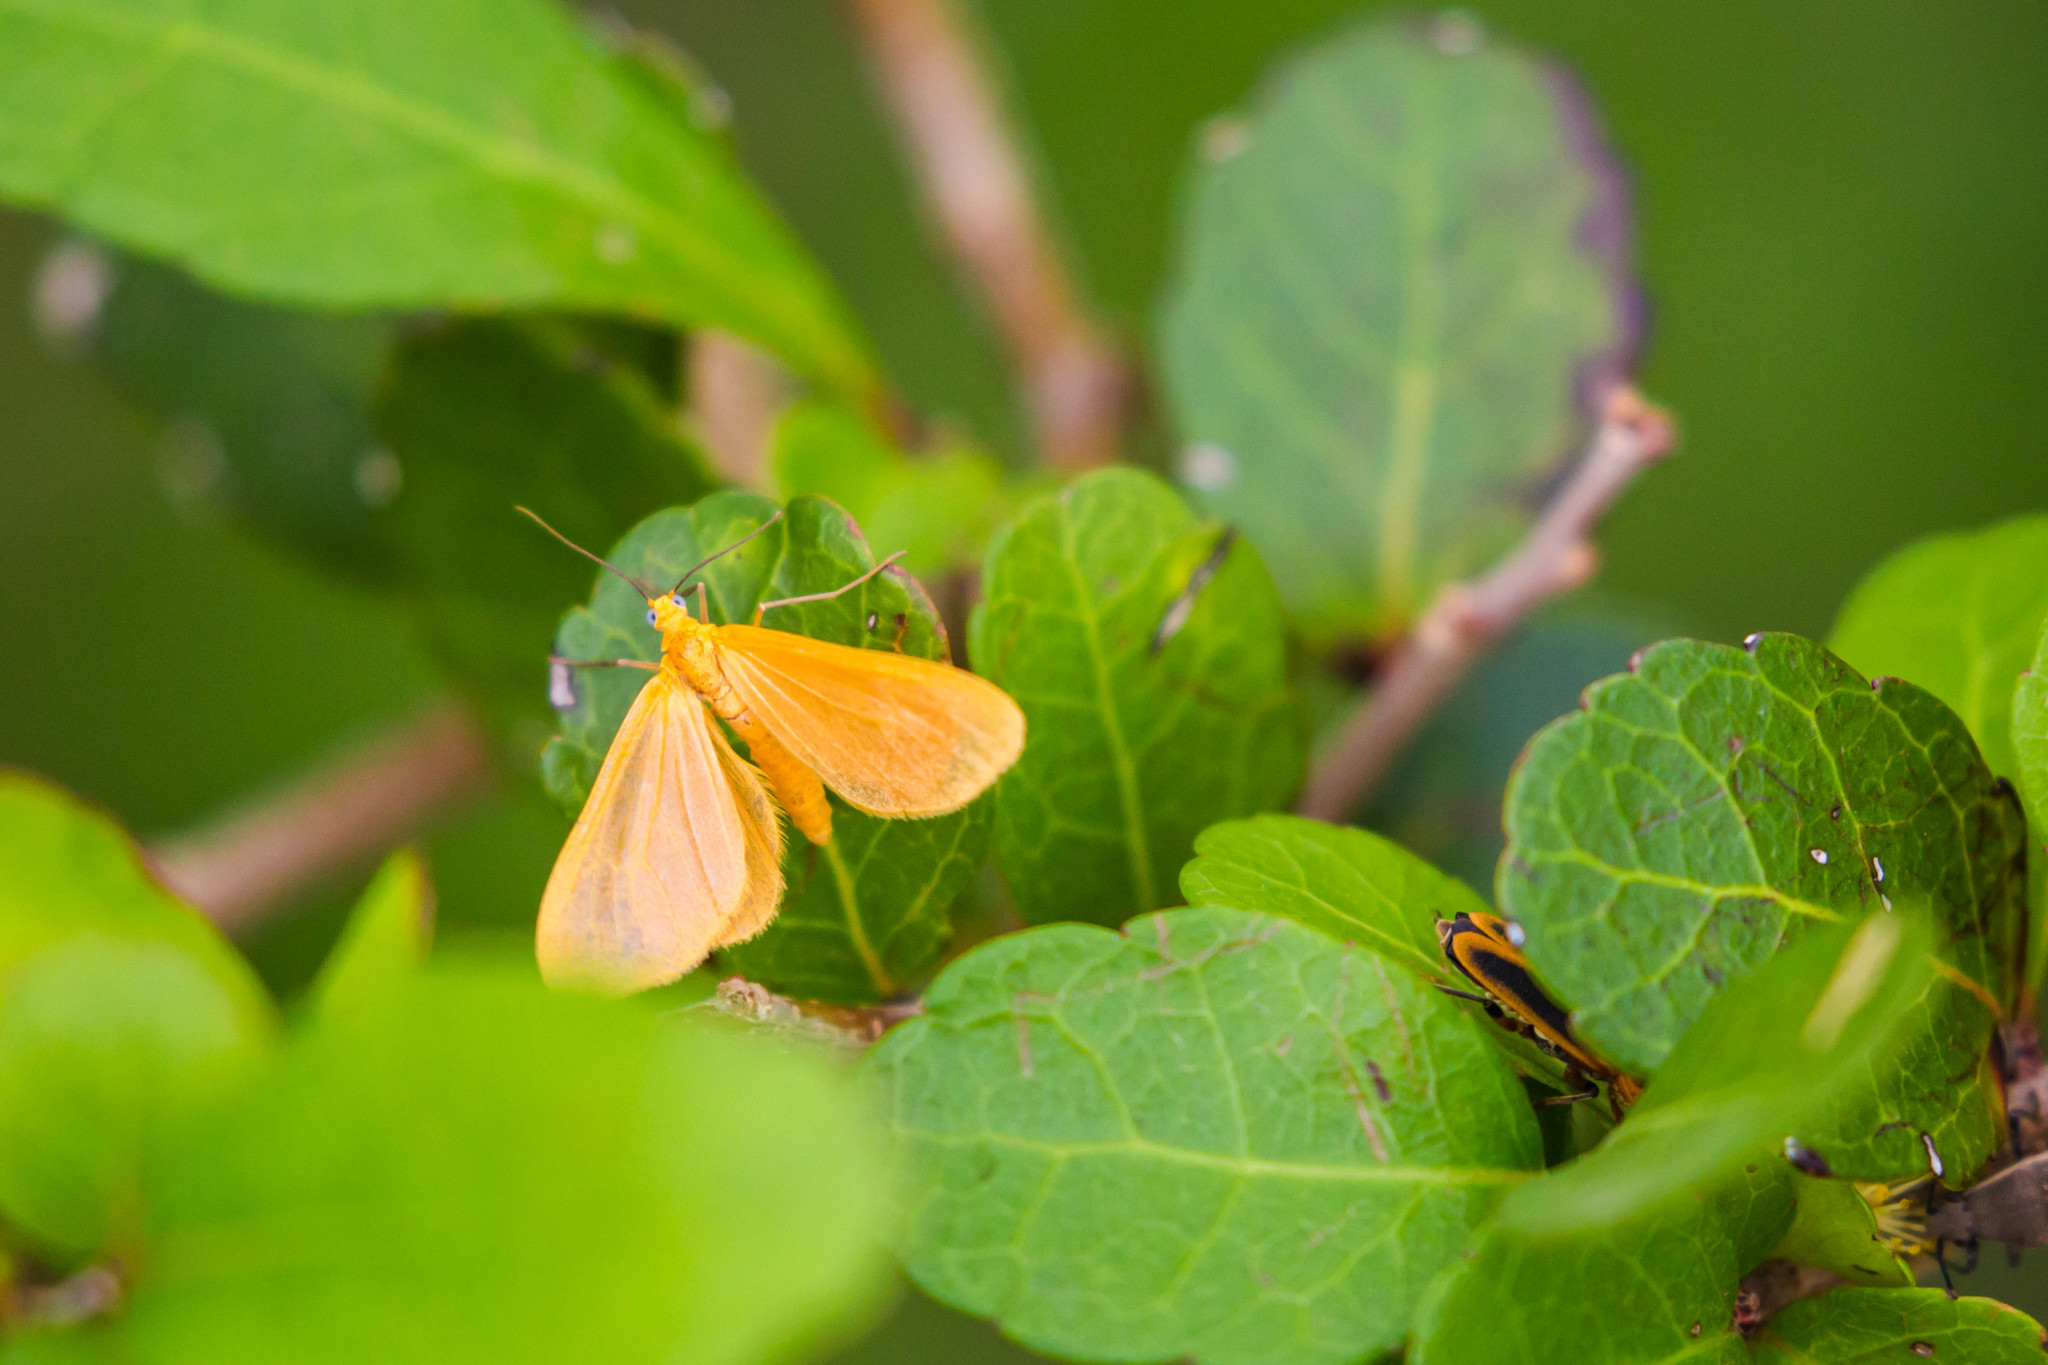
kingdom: Animalia
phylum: Arthropoda
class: Insecta
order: Lepidoptera
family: Geometridae
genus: Eubaphe
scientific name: Eubaphe unicolor
